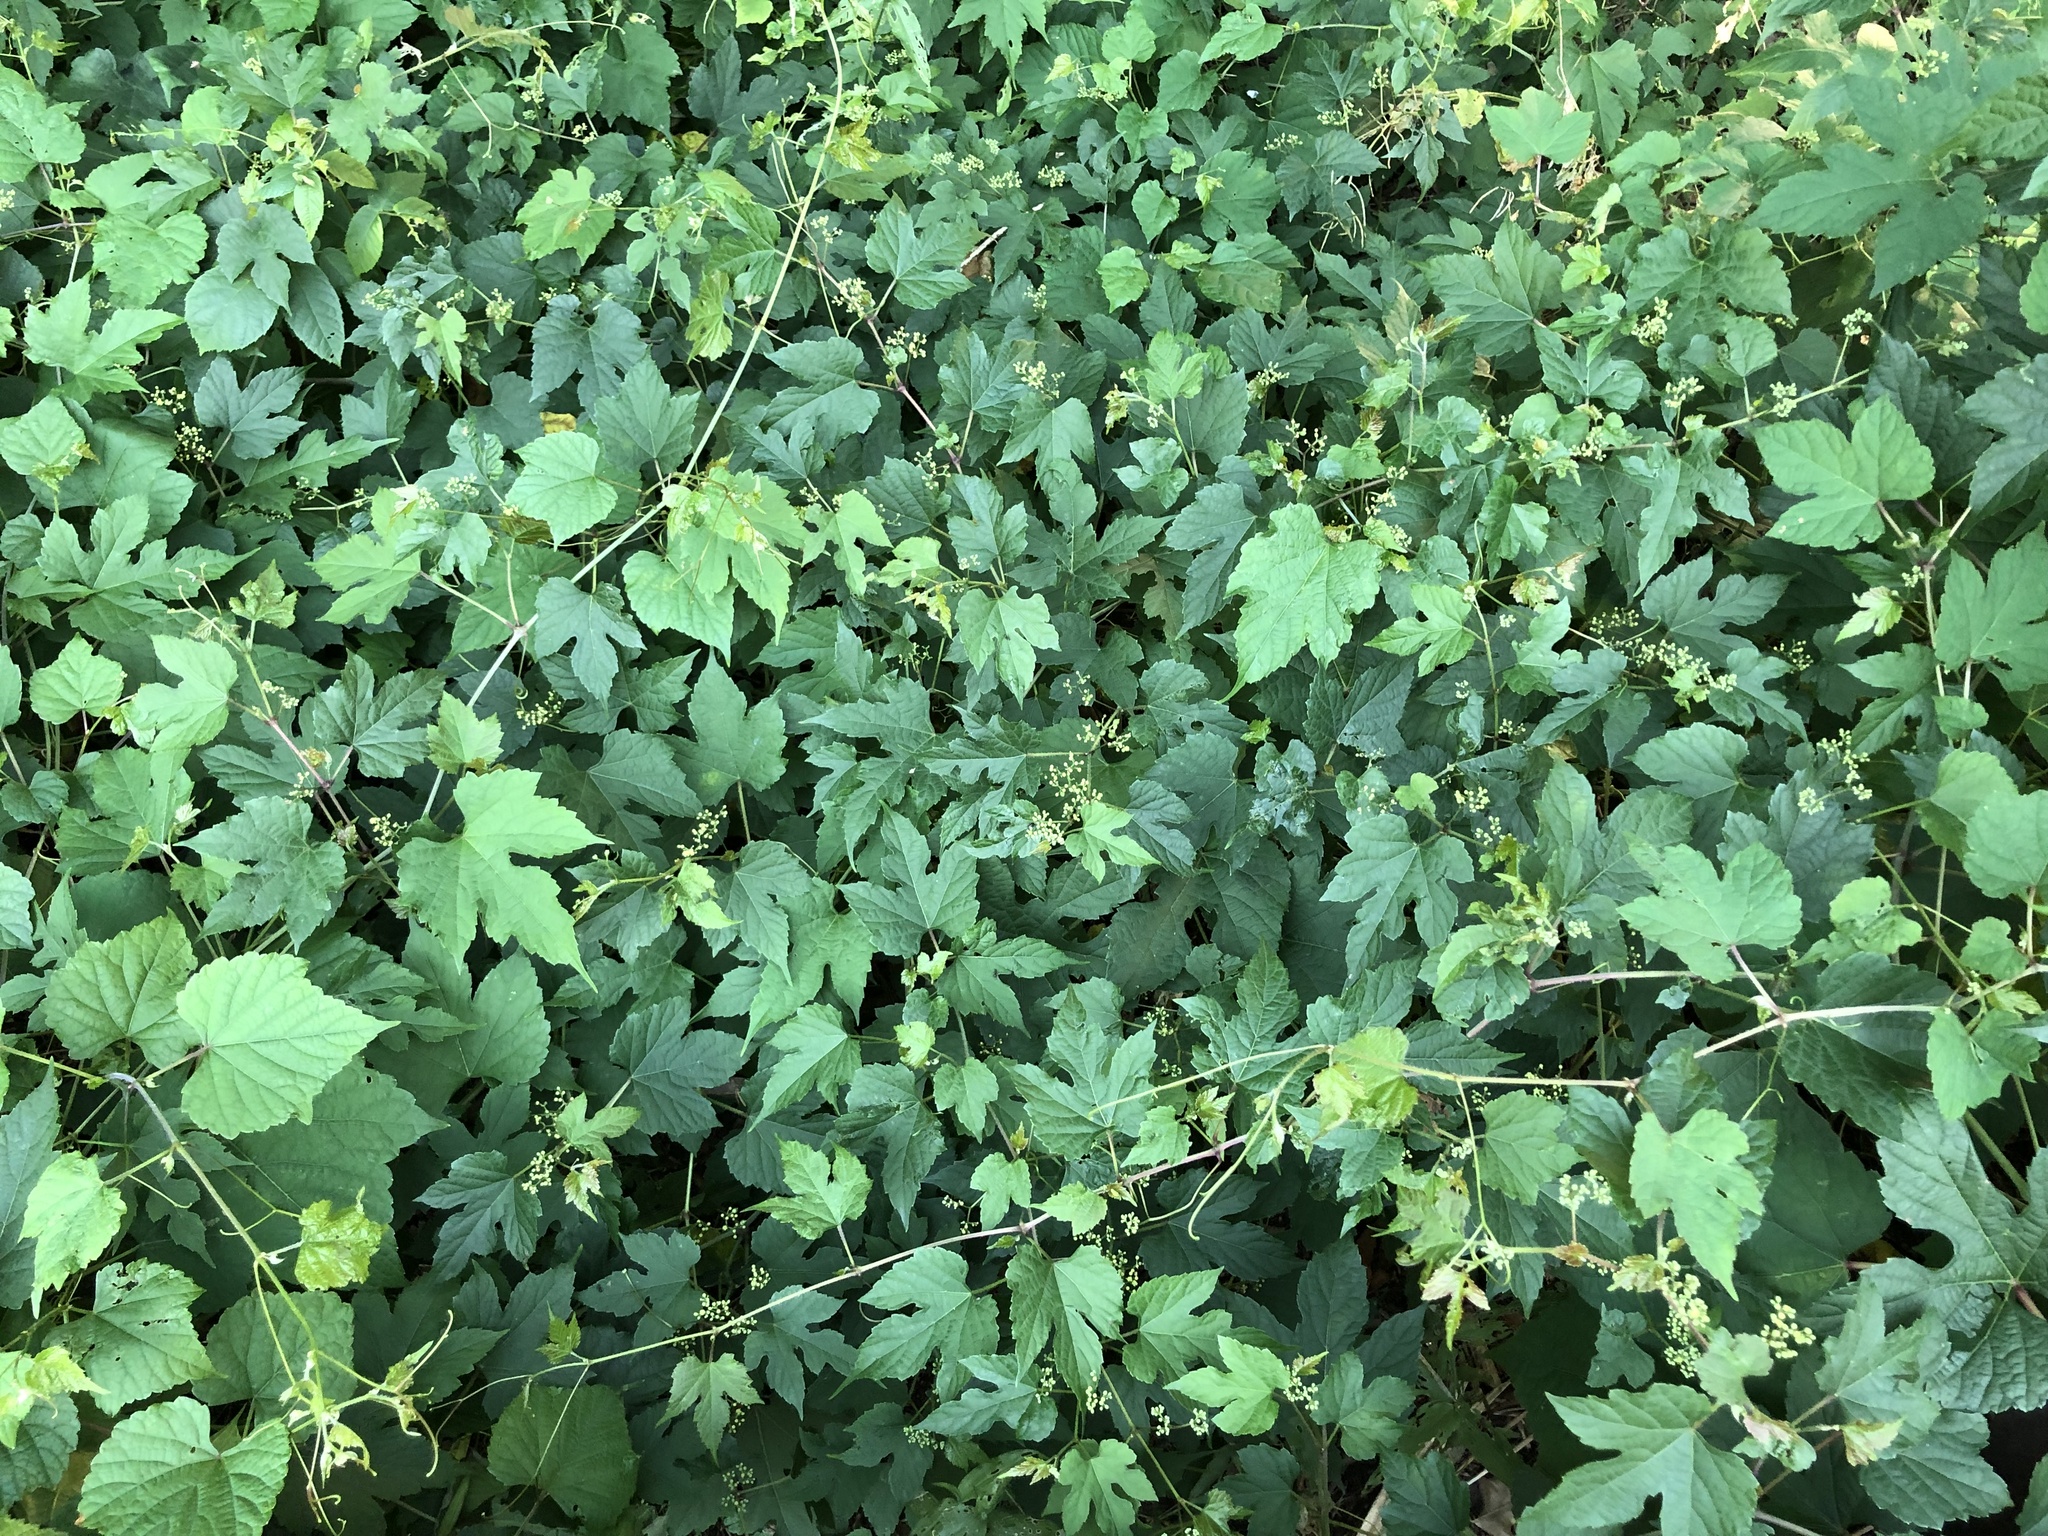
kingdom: Plantae
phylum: Tracheophyta
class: Magnoliopsida
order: Vitales
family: Vitaceae
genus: Ampelopsis
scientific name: Ampelopsis glandulosa
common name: Amur peppervine
